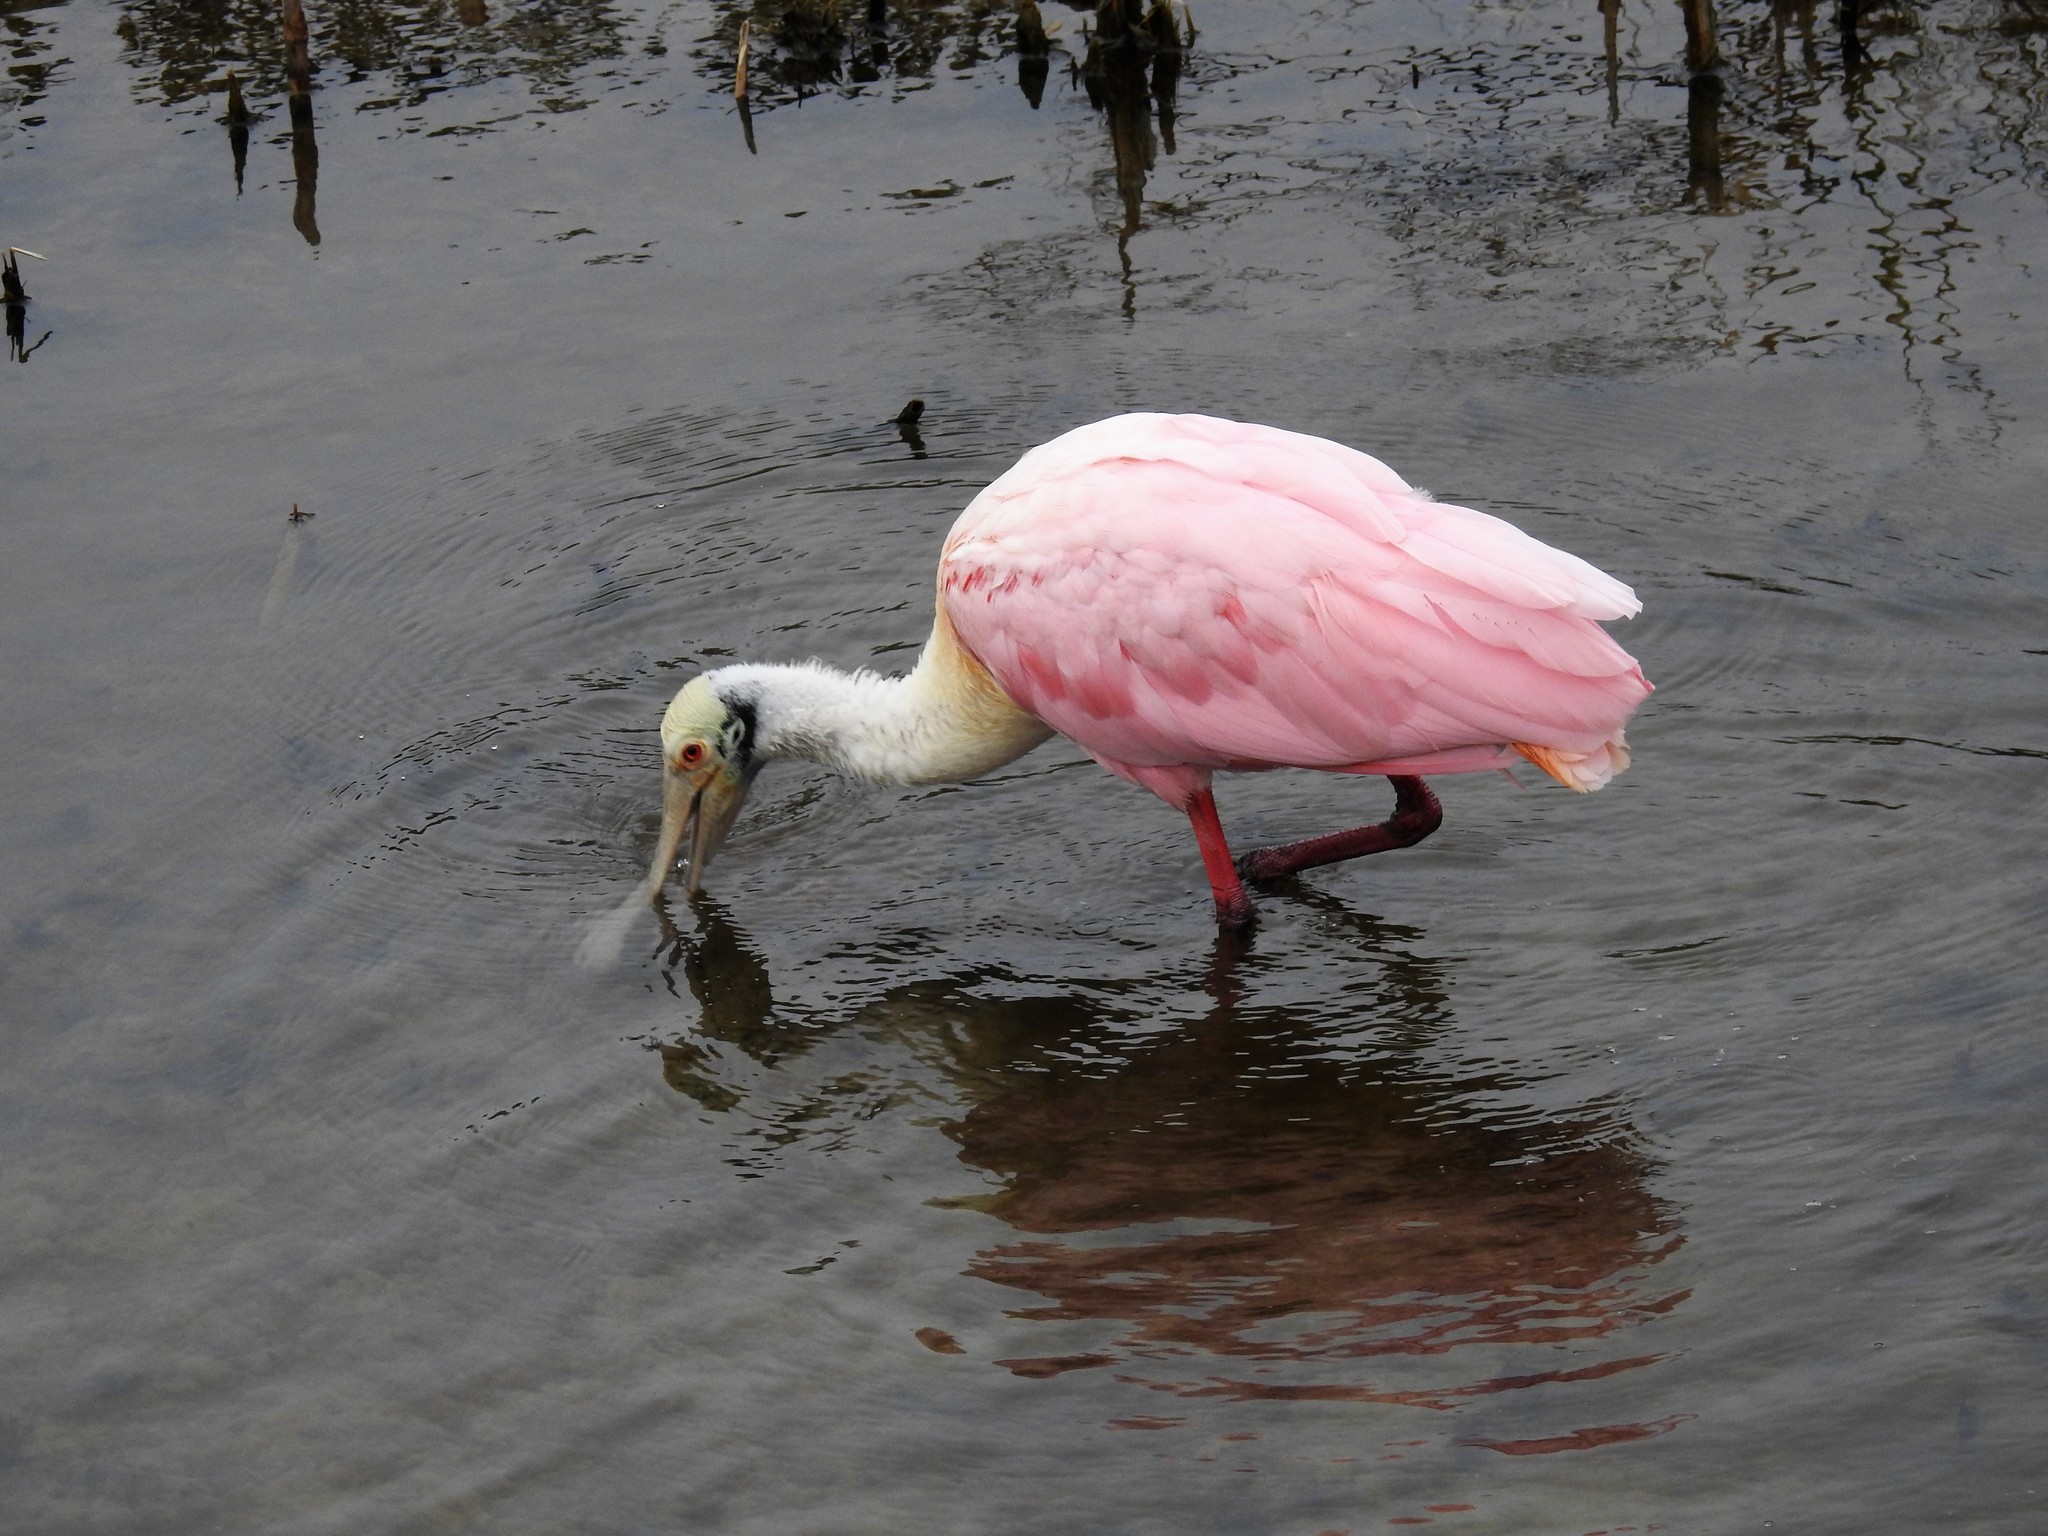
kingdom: Animalia
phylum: Chordata
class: Aves
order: Pelecaniformes
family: Threskiornithidae
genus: Platalea
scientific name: Platalea ajaja
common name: Roseate spoonbill
